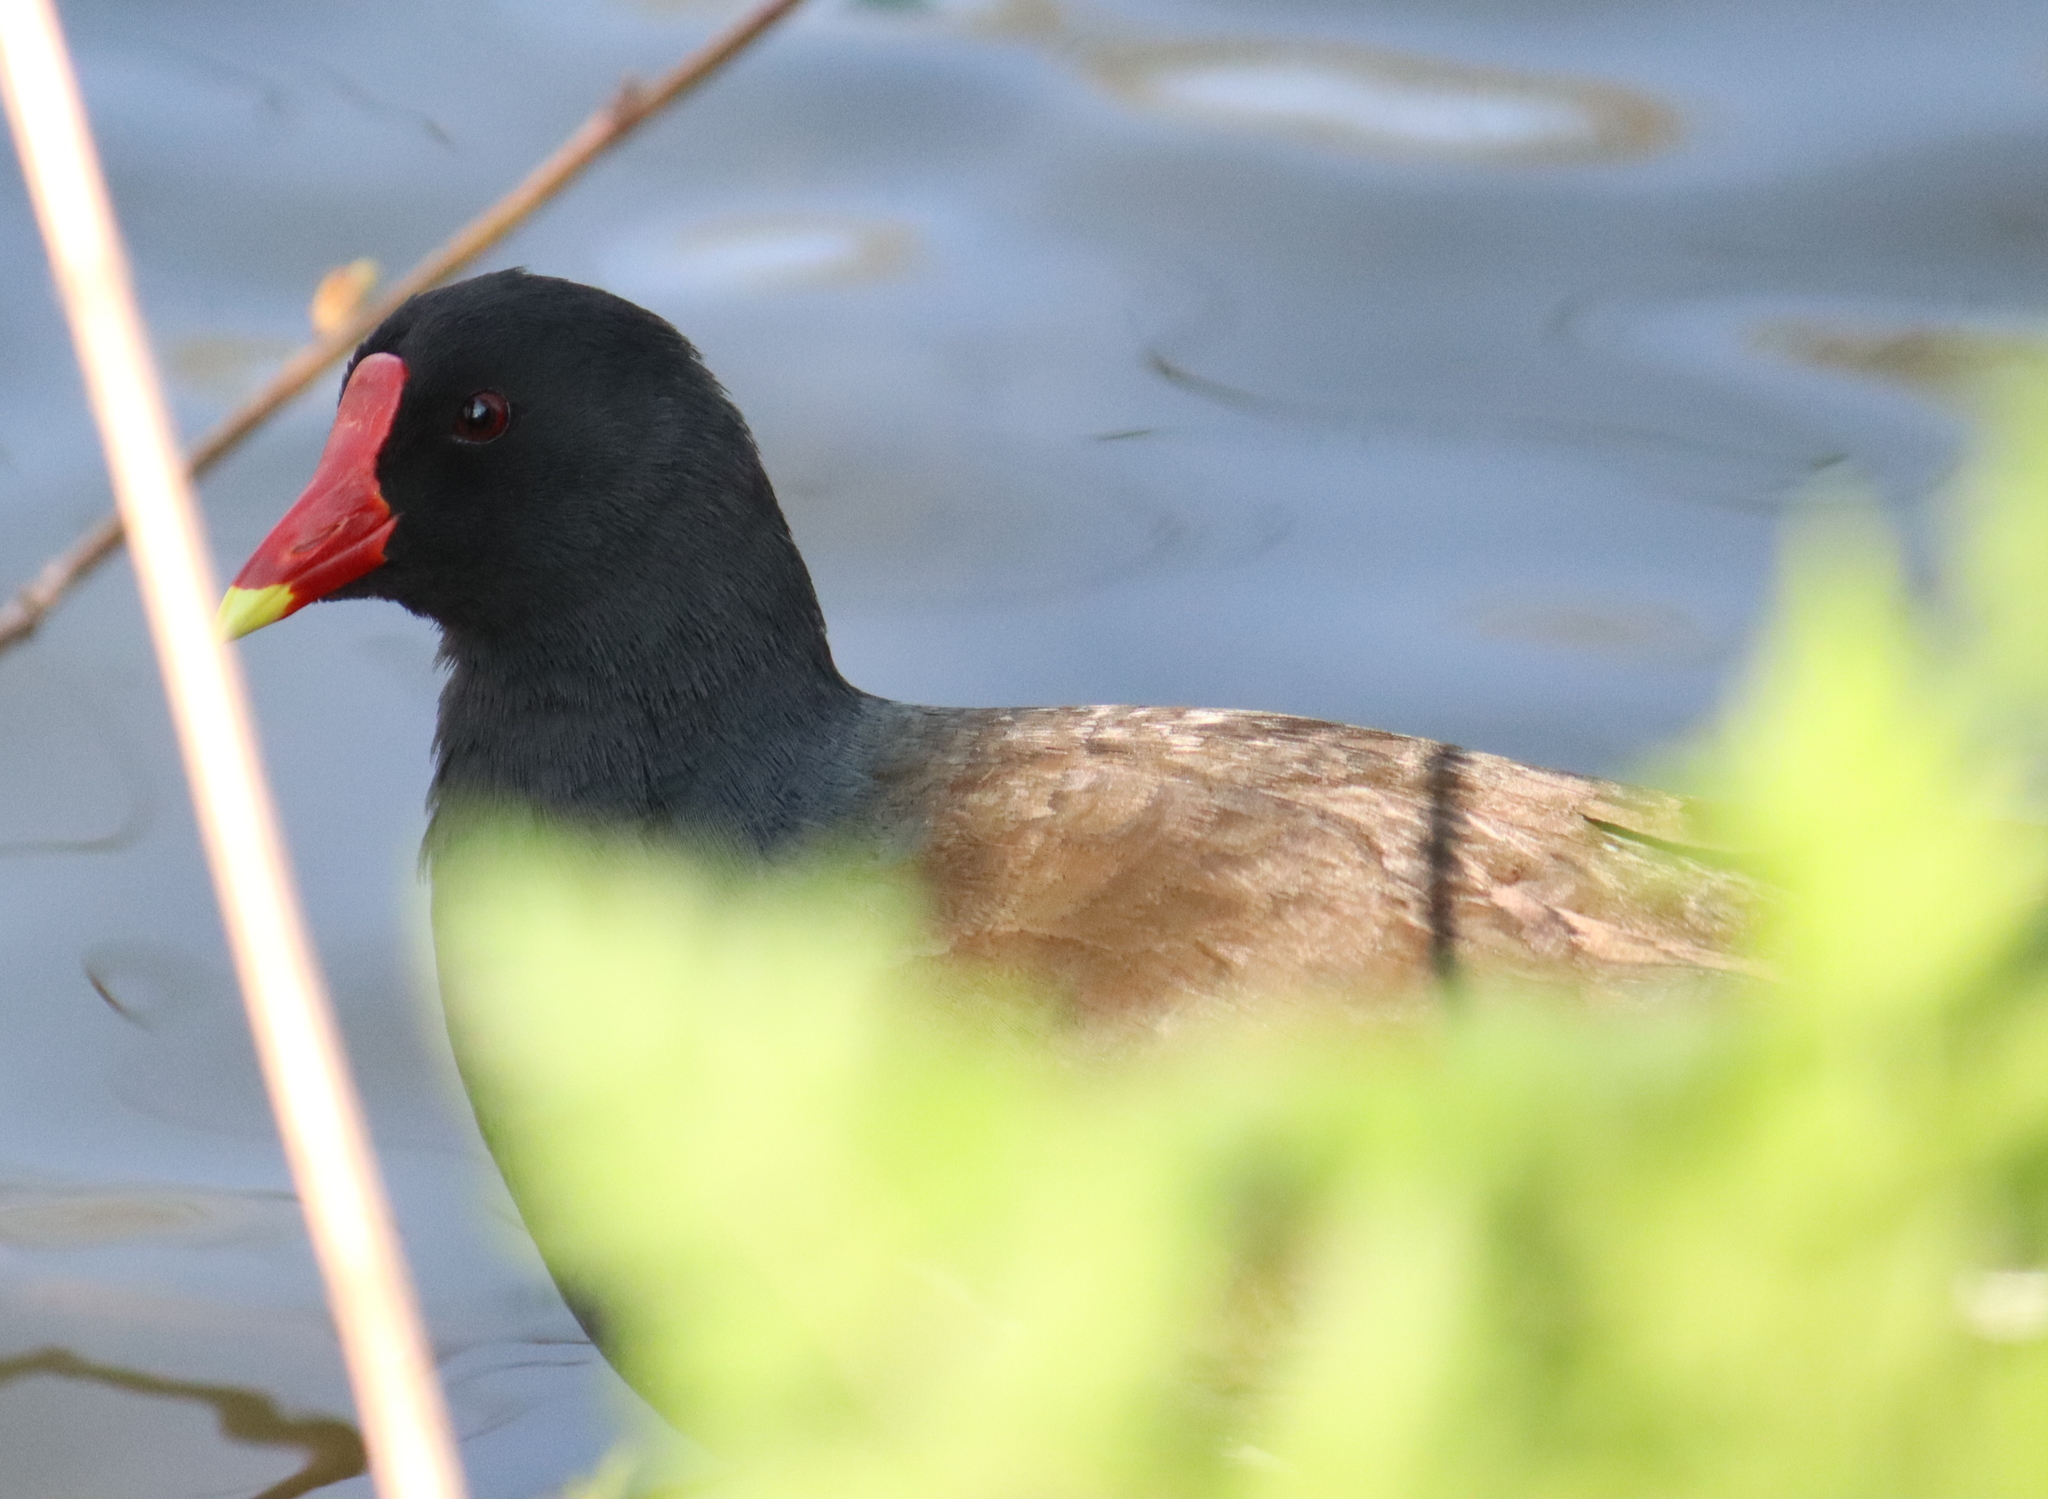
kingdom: Animalia
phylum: Chordata
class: Aves
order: Gruiformes
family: Rallidae
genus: Gallinula
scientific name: Gallinula chloropus
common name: Common moorhen
